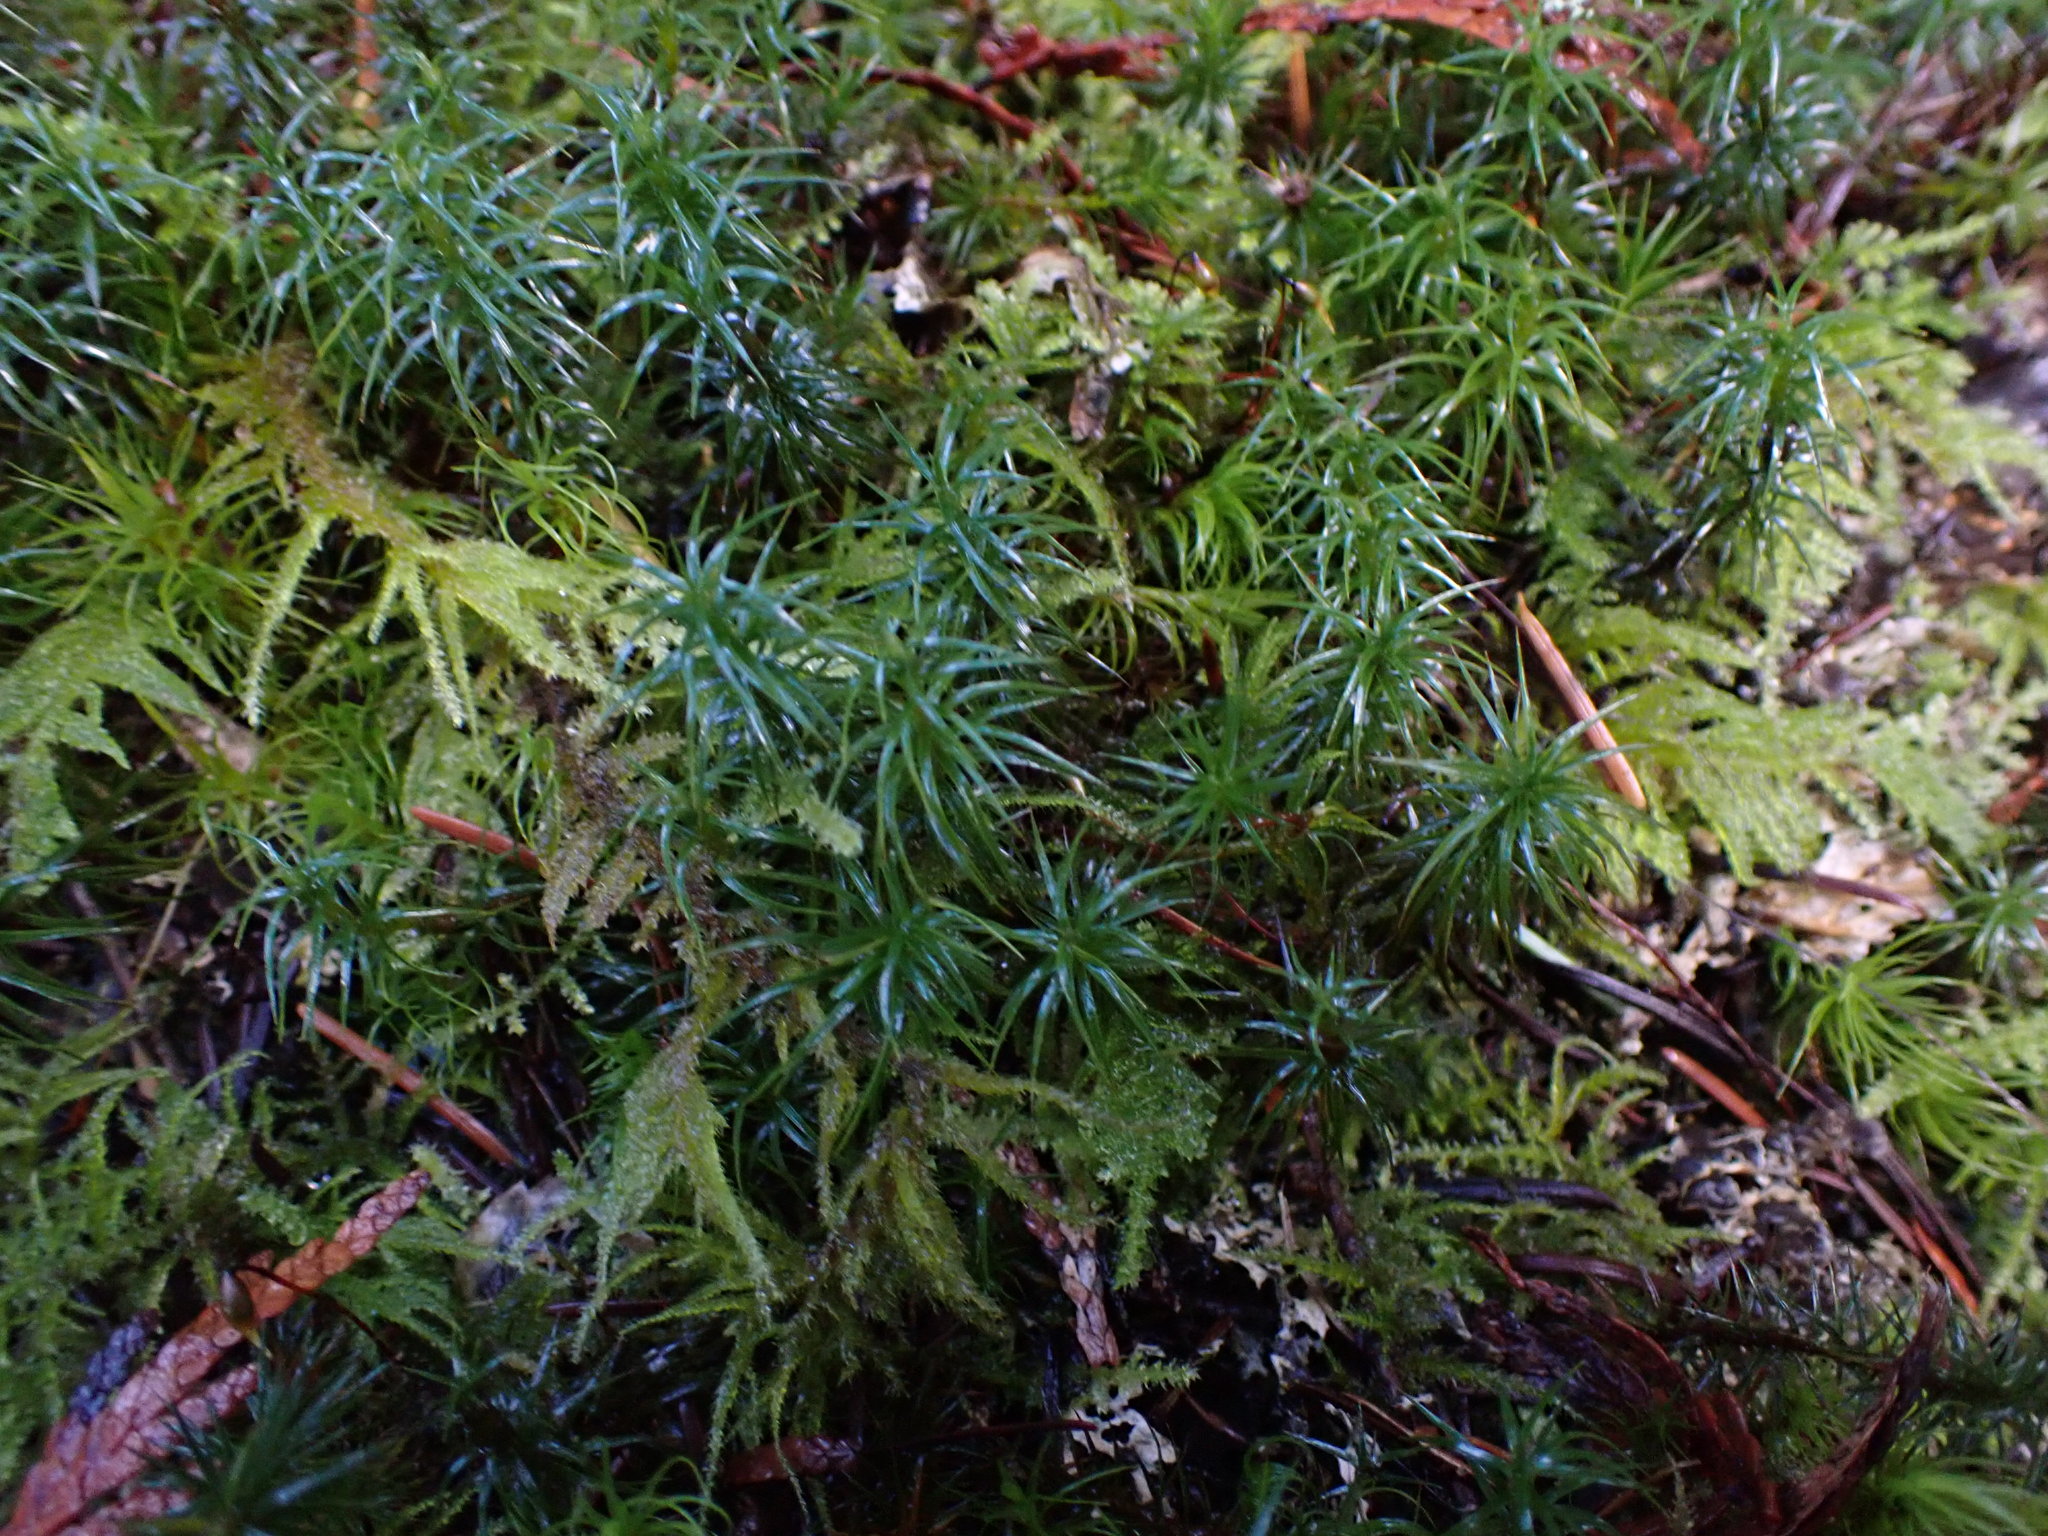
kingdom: Plantae
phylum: Bryophyta
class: Polytrichopsida
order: Polytrichales
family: Polytrichaceae
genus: Polytrichastrum
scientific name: Polytrichastrum alpinum
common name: Alpine haircap
